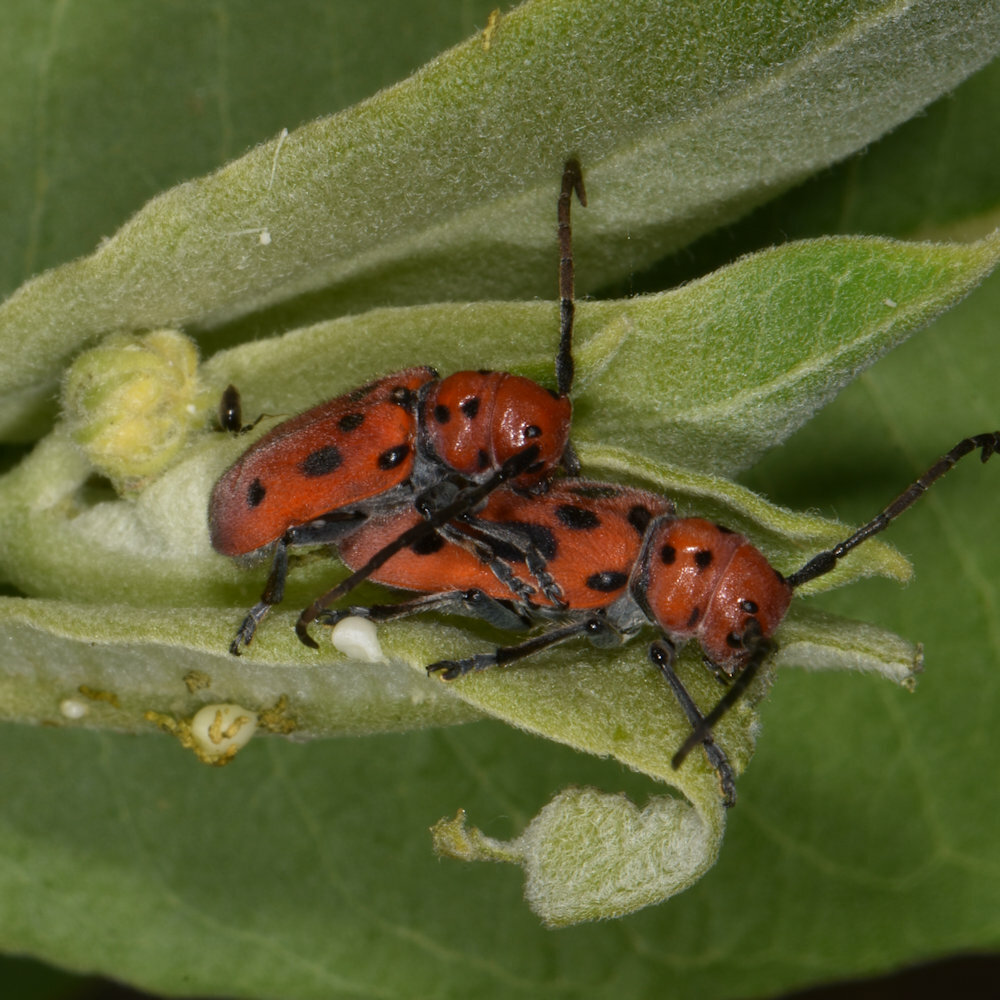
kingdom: Animalia
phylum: Arthropoda
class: Insecta
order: Coleoptera
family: Cerambycidae
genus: Tetraopes
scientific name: Tetraopes tetrophthalmus
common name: Red milkweed beetle
